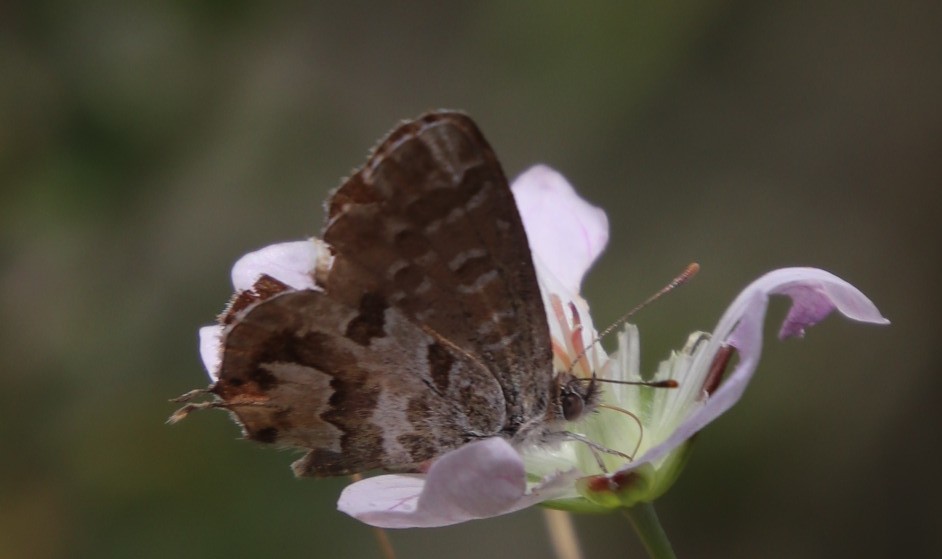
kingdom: Plantae
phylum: Tracheophyta
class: Magnoliopsida
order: Geraniales
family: Geraniaceae
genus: Geranium
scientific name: Geranium incanum
